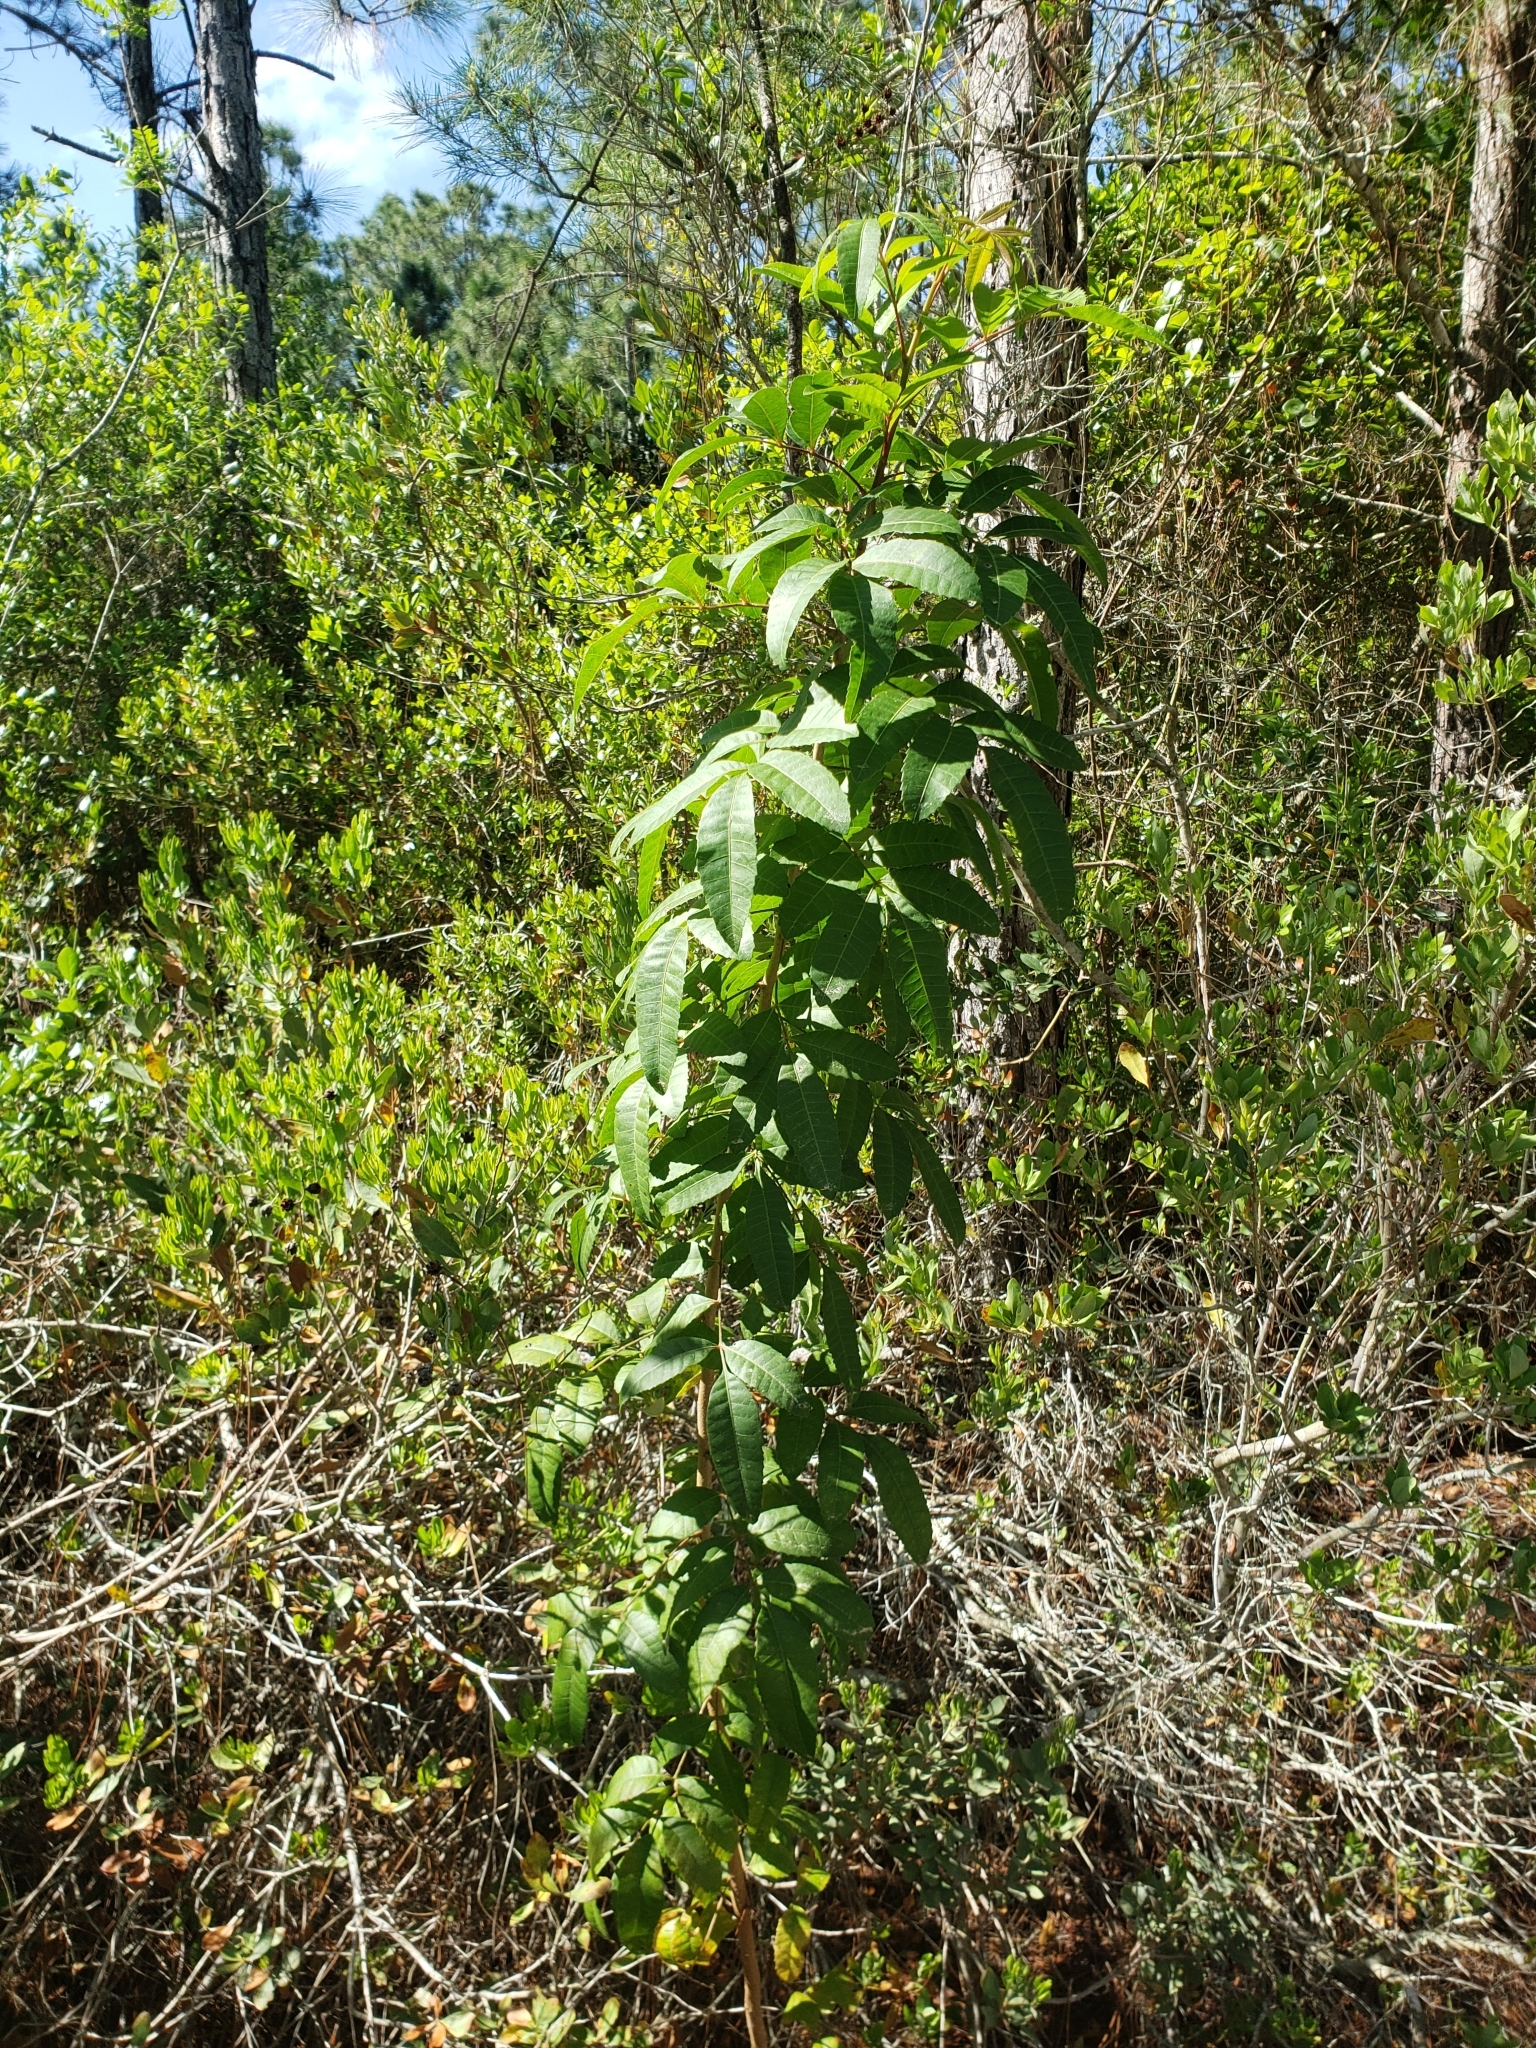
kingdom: Plantae
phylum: Tracheophyta
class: Magnoliopsida
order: Sapindales
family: Anacardiaceae
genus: Schinus
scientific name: Schinus terebinthifolia
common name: Brazilian peppertree
